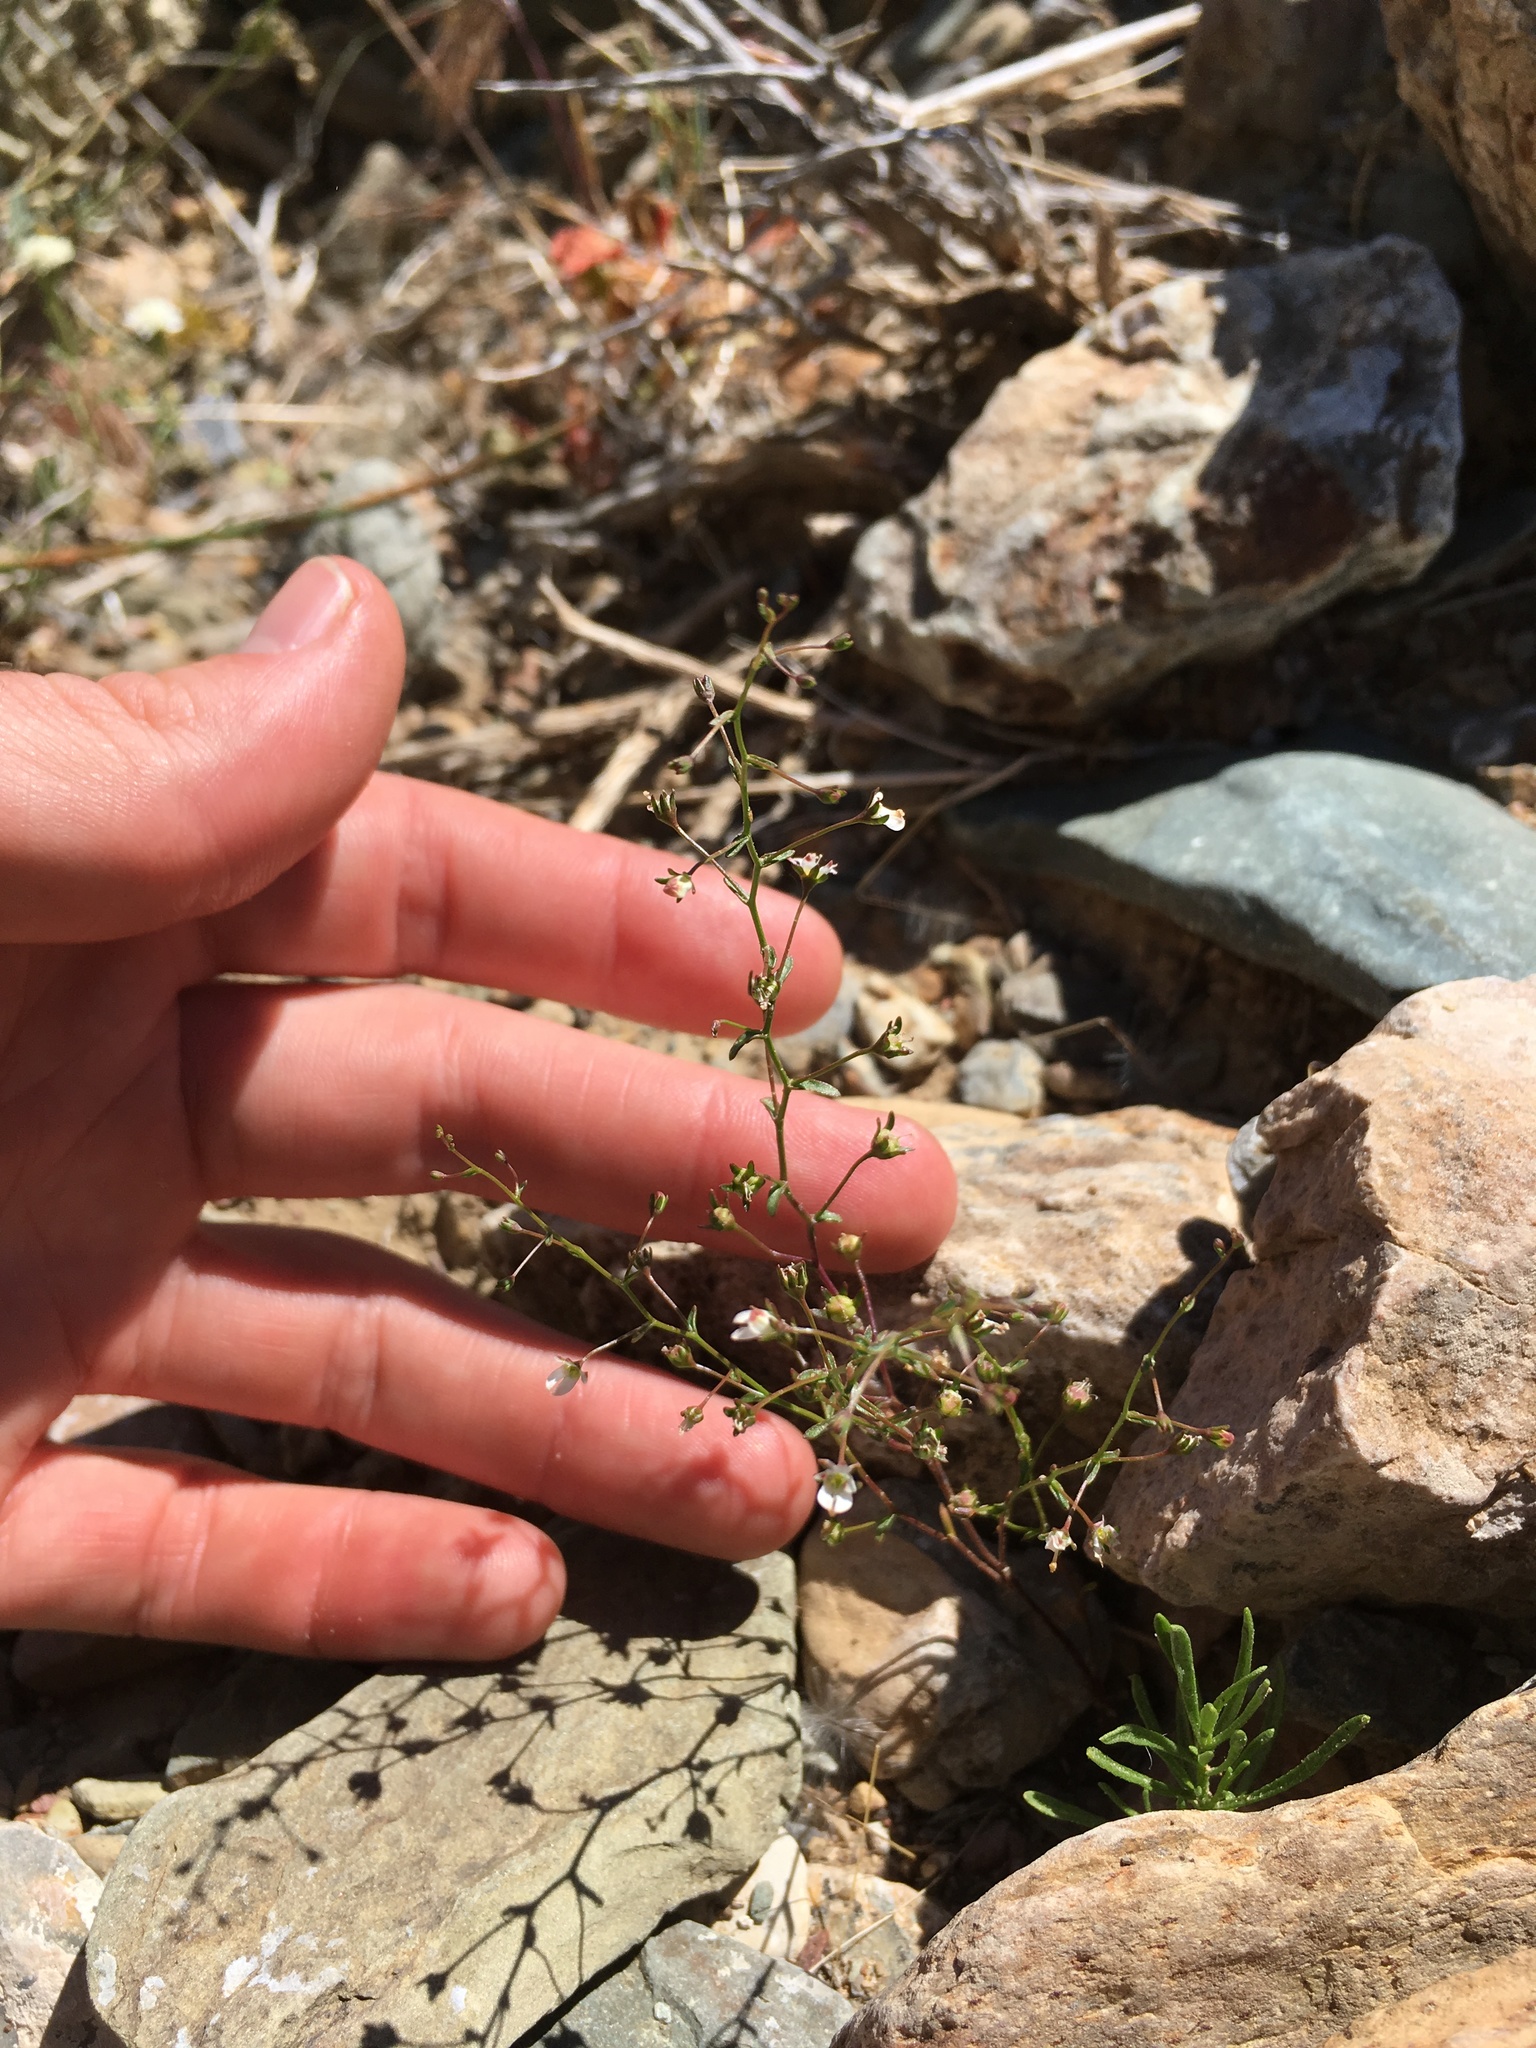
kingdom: Plantae
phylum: Tracheophyta
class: Magnoliopsida
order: Asterales
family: Campanulaceae
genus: Nemacladus
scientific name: Nemacladus orientalis
